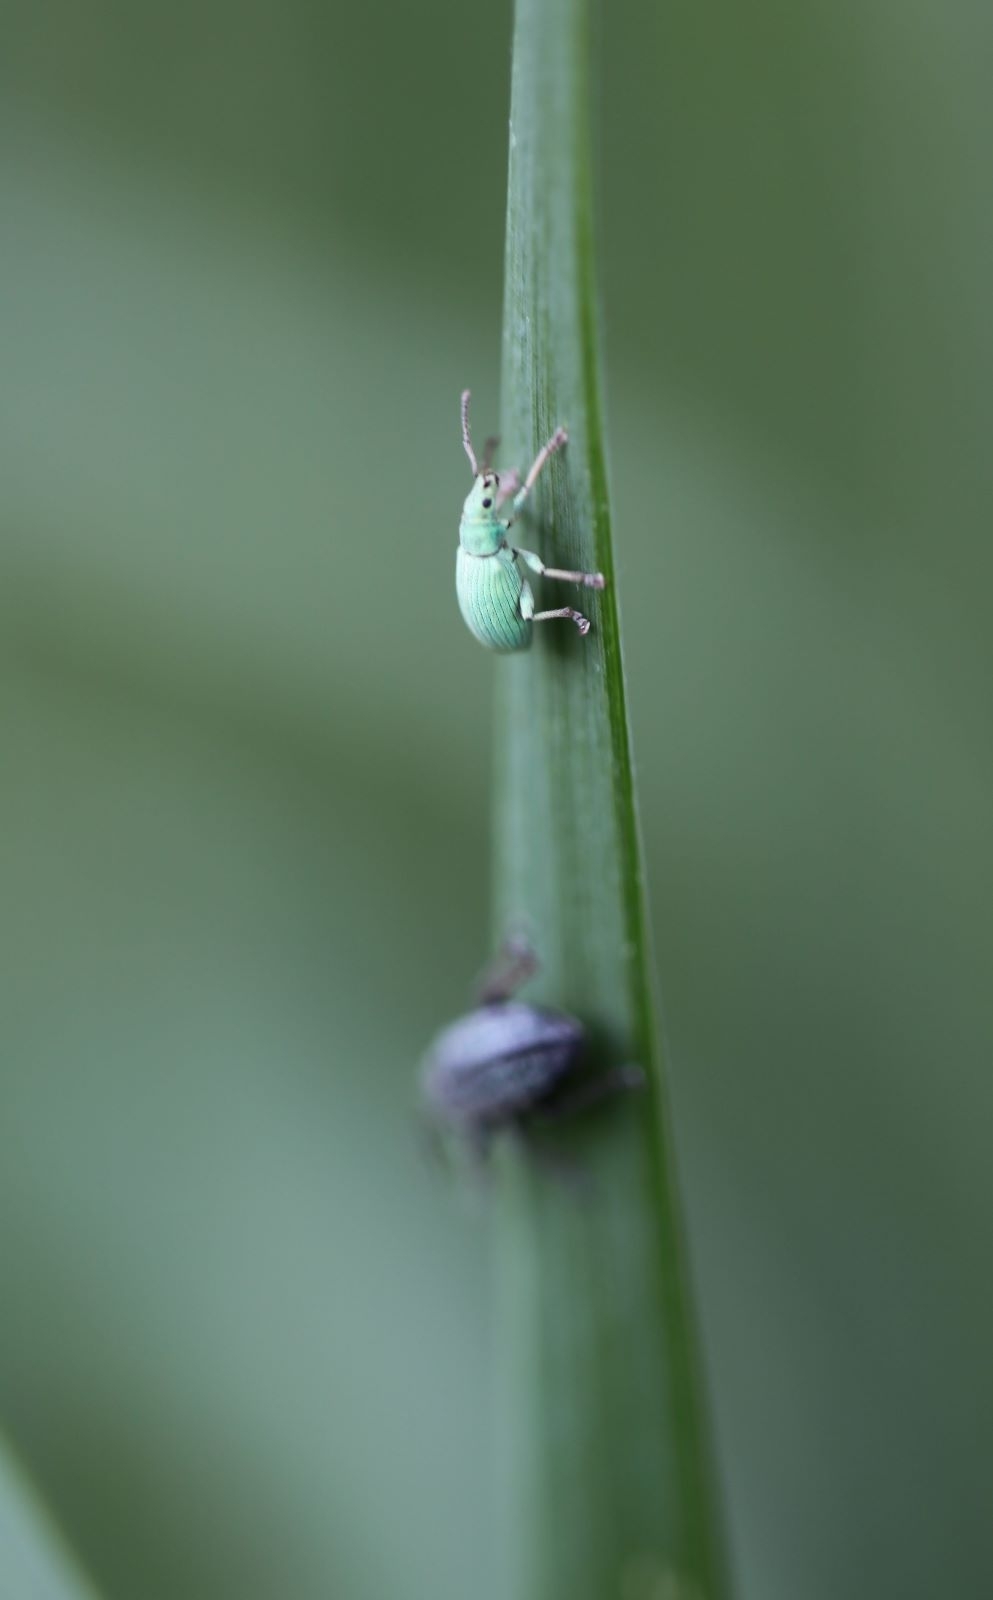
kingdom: Animalia
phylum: Arthropoda
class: Insecta
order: Coleoptera
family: Curculionidae
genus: Phyllobius
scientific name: Phyllobius virideaeris
